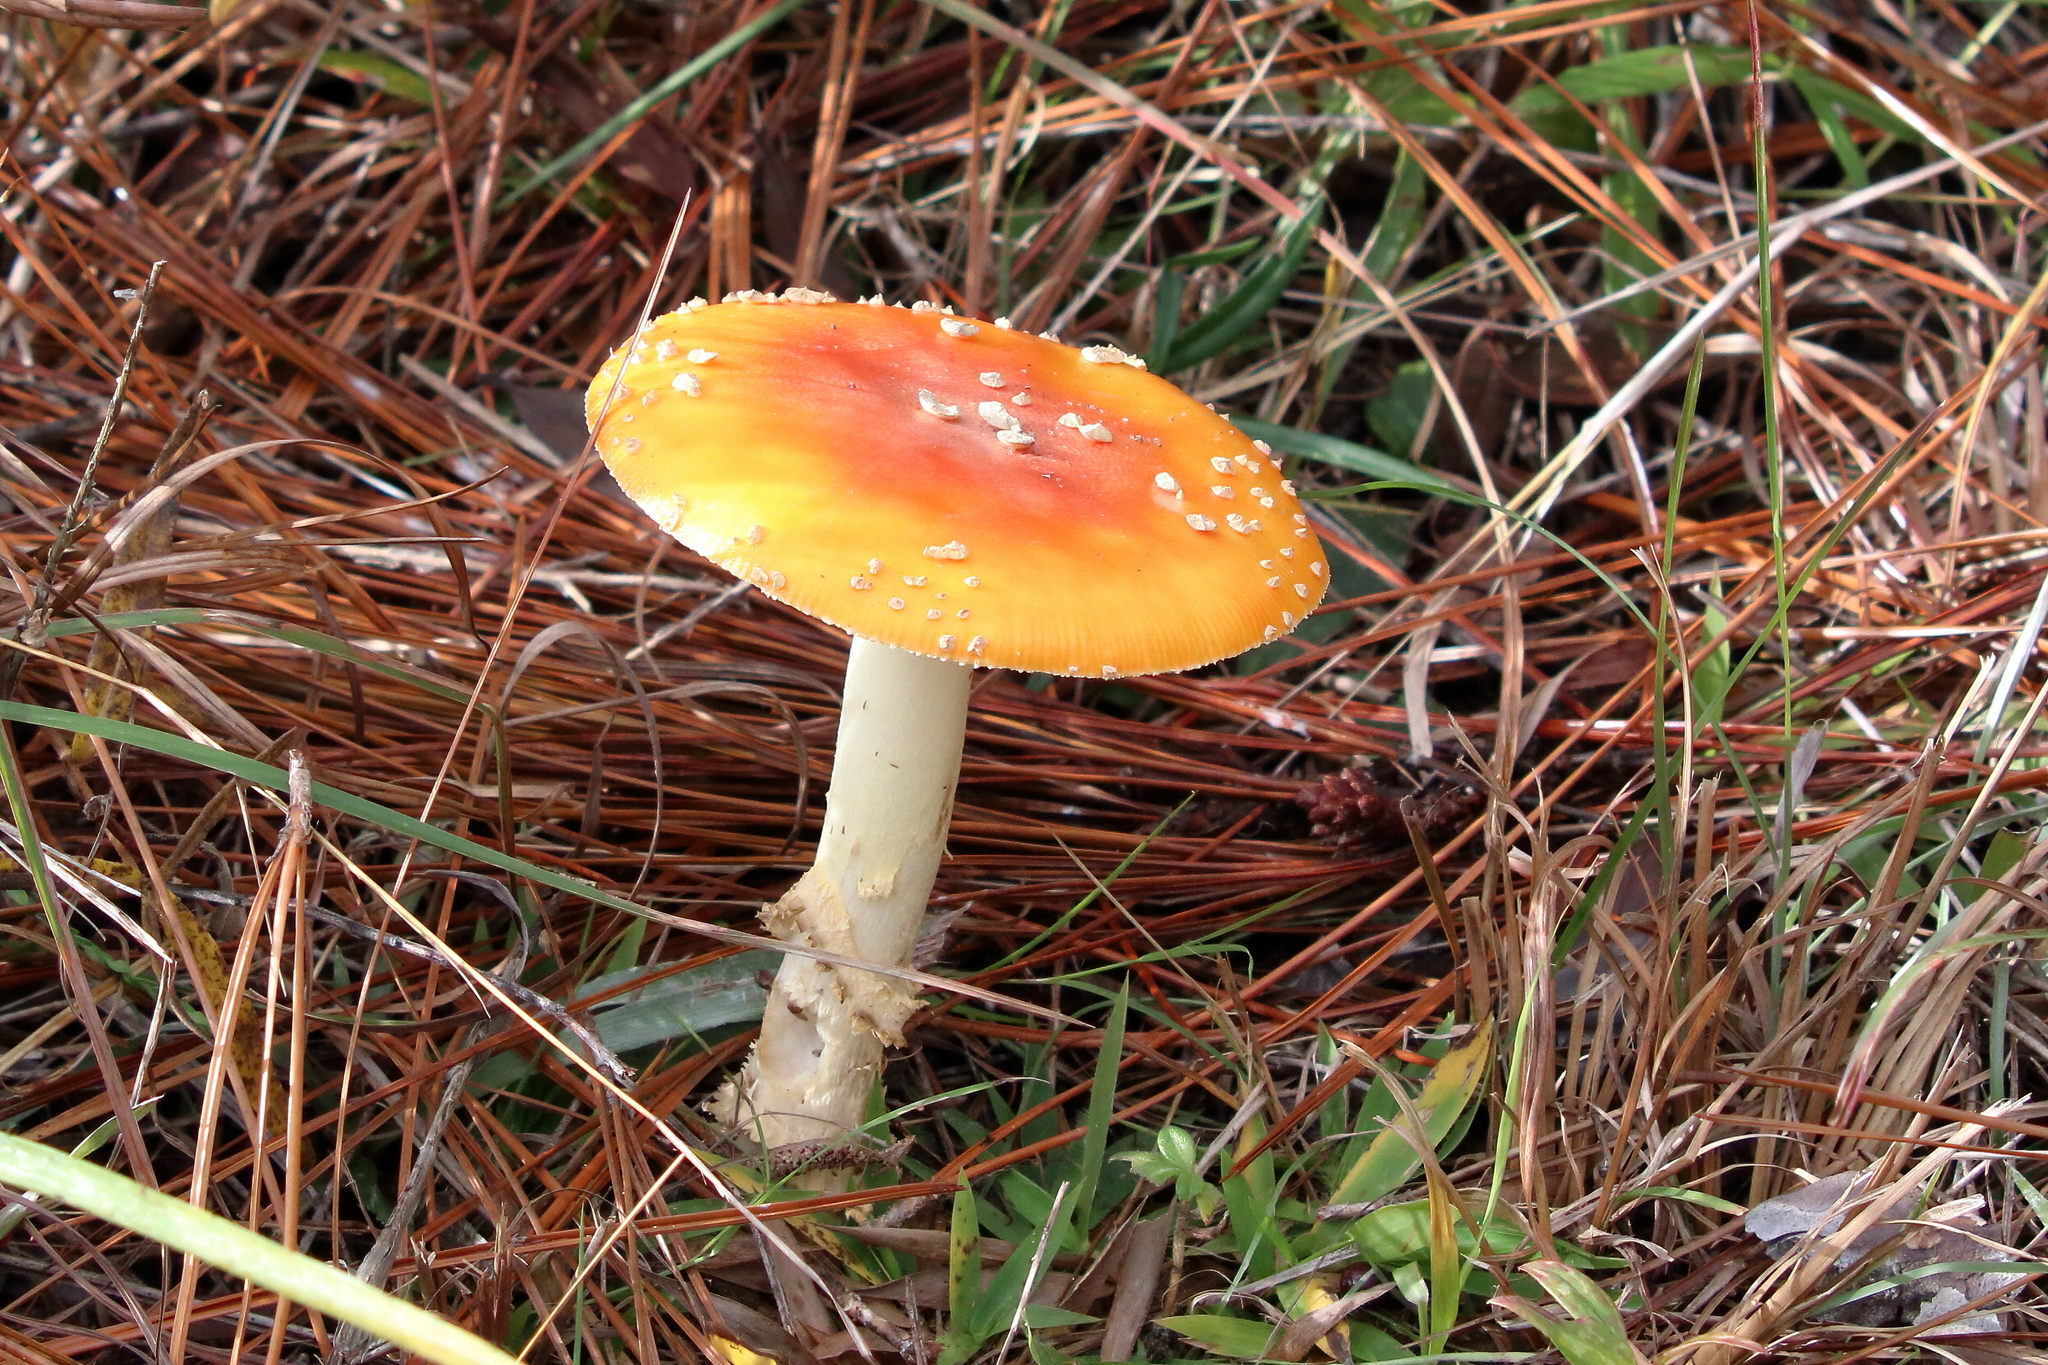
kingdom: Fungi
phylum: Basidiomycota
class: Agaricomycetes
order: Agaricales
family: Amanitaceae
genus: Amanita
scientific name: Amanita persicina
